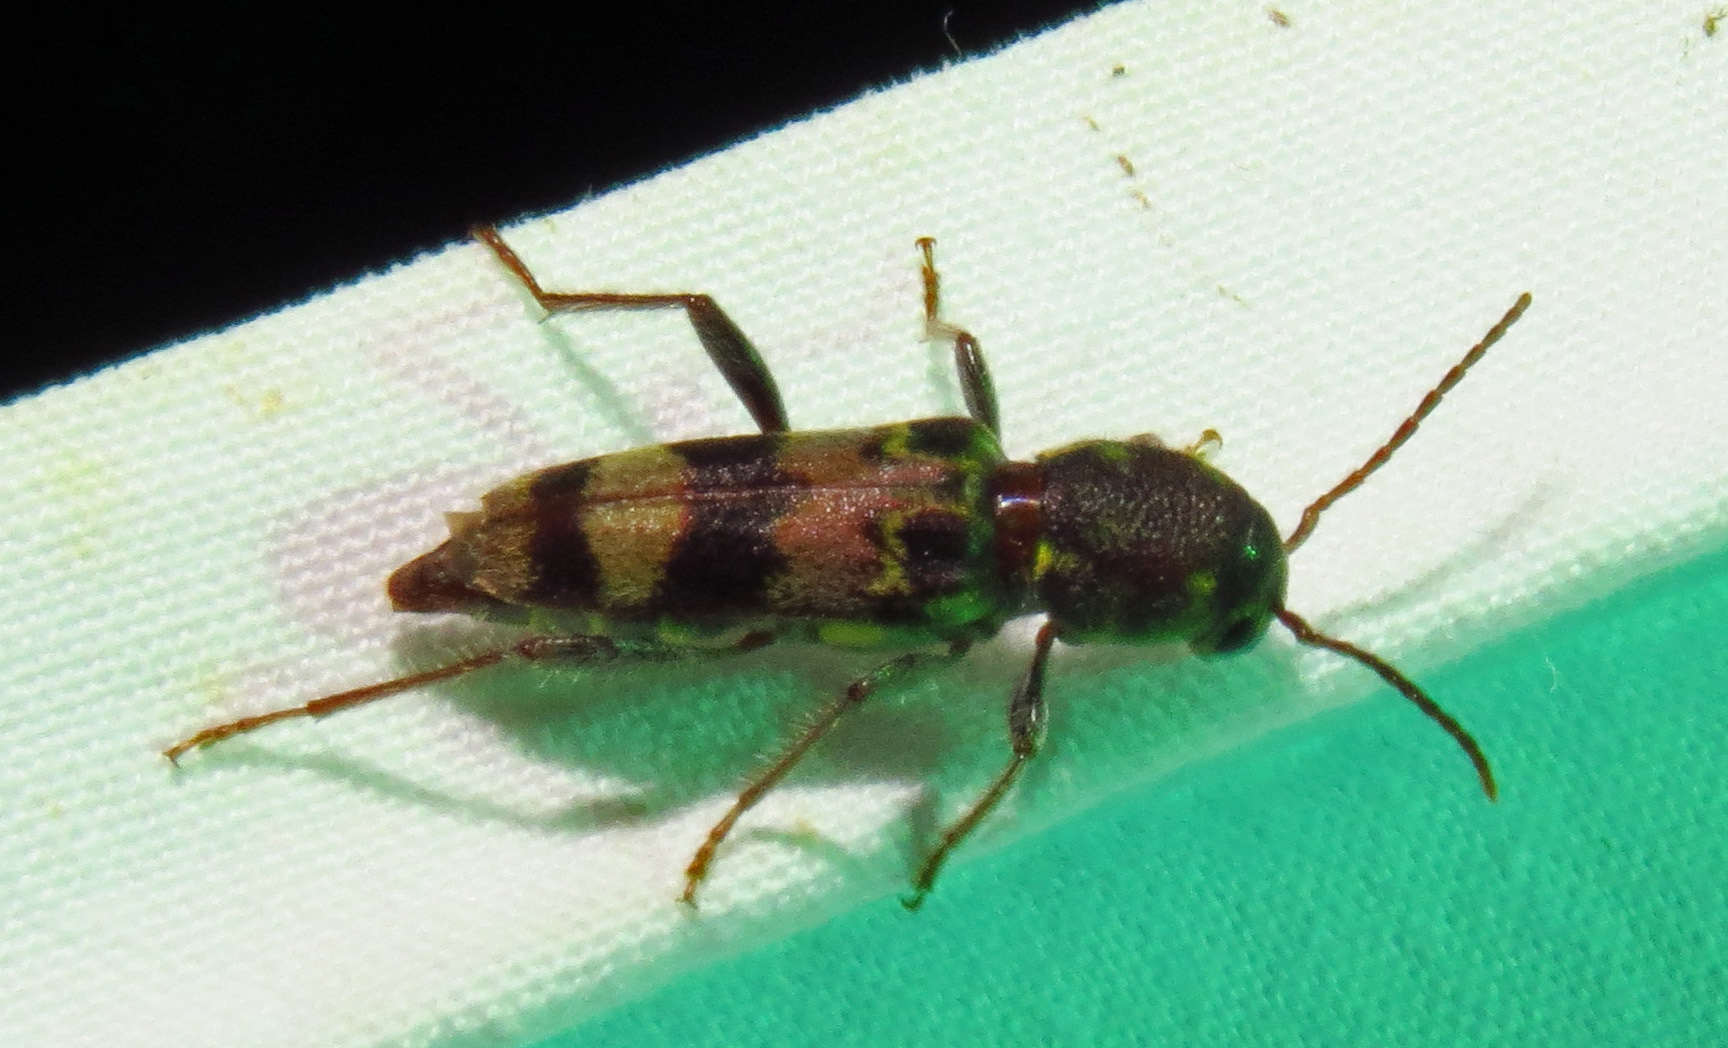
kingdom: Animalia
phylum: Arthropoda
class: Insecta
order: Coleoptera
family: Cerambycidae
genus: Xylotrechus
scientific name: Xylotrechus colonus
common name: Long-horned beetle
